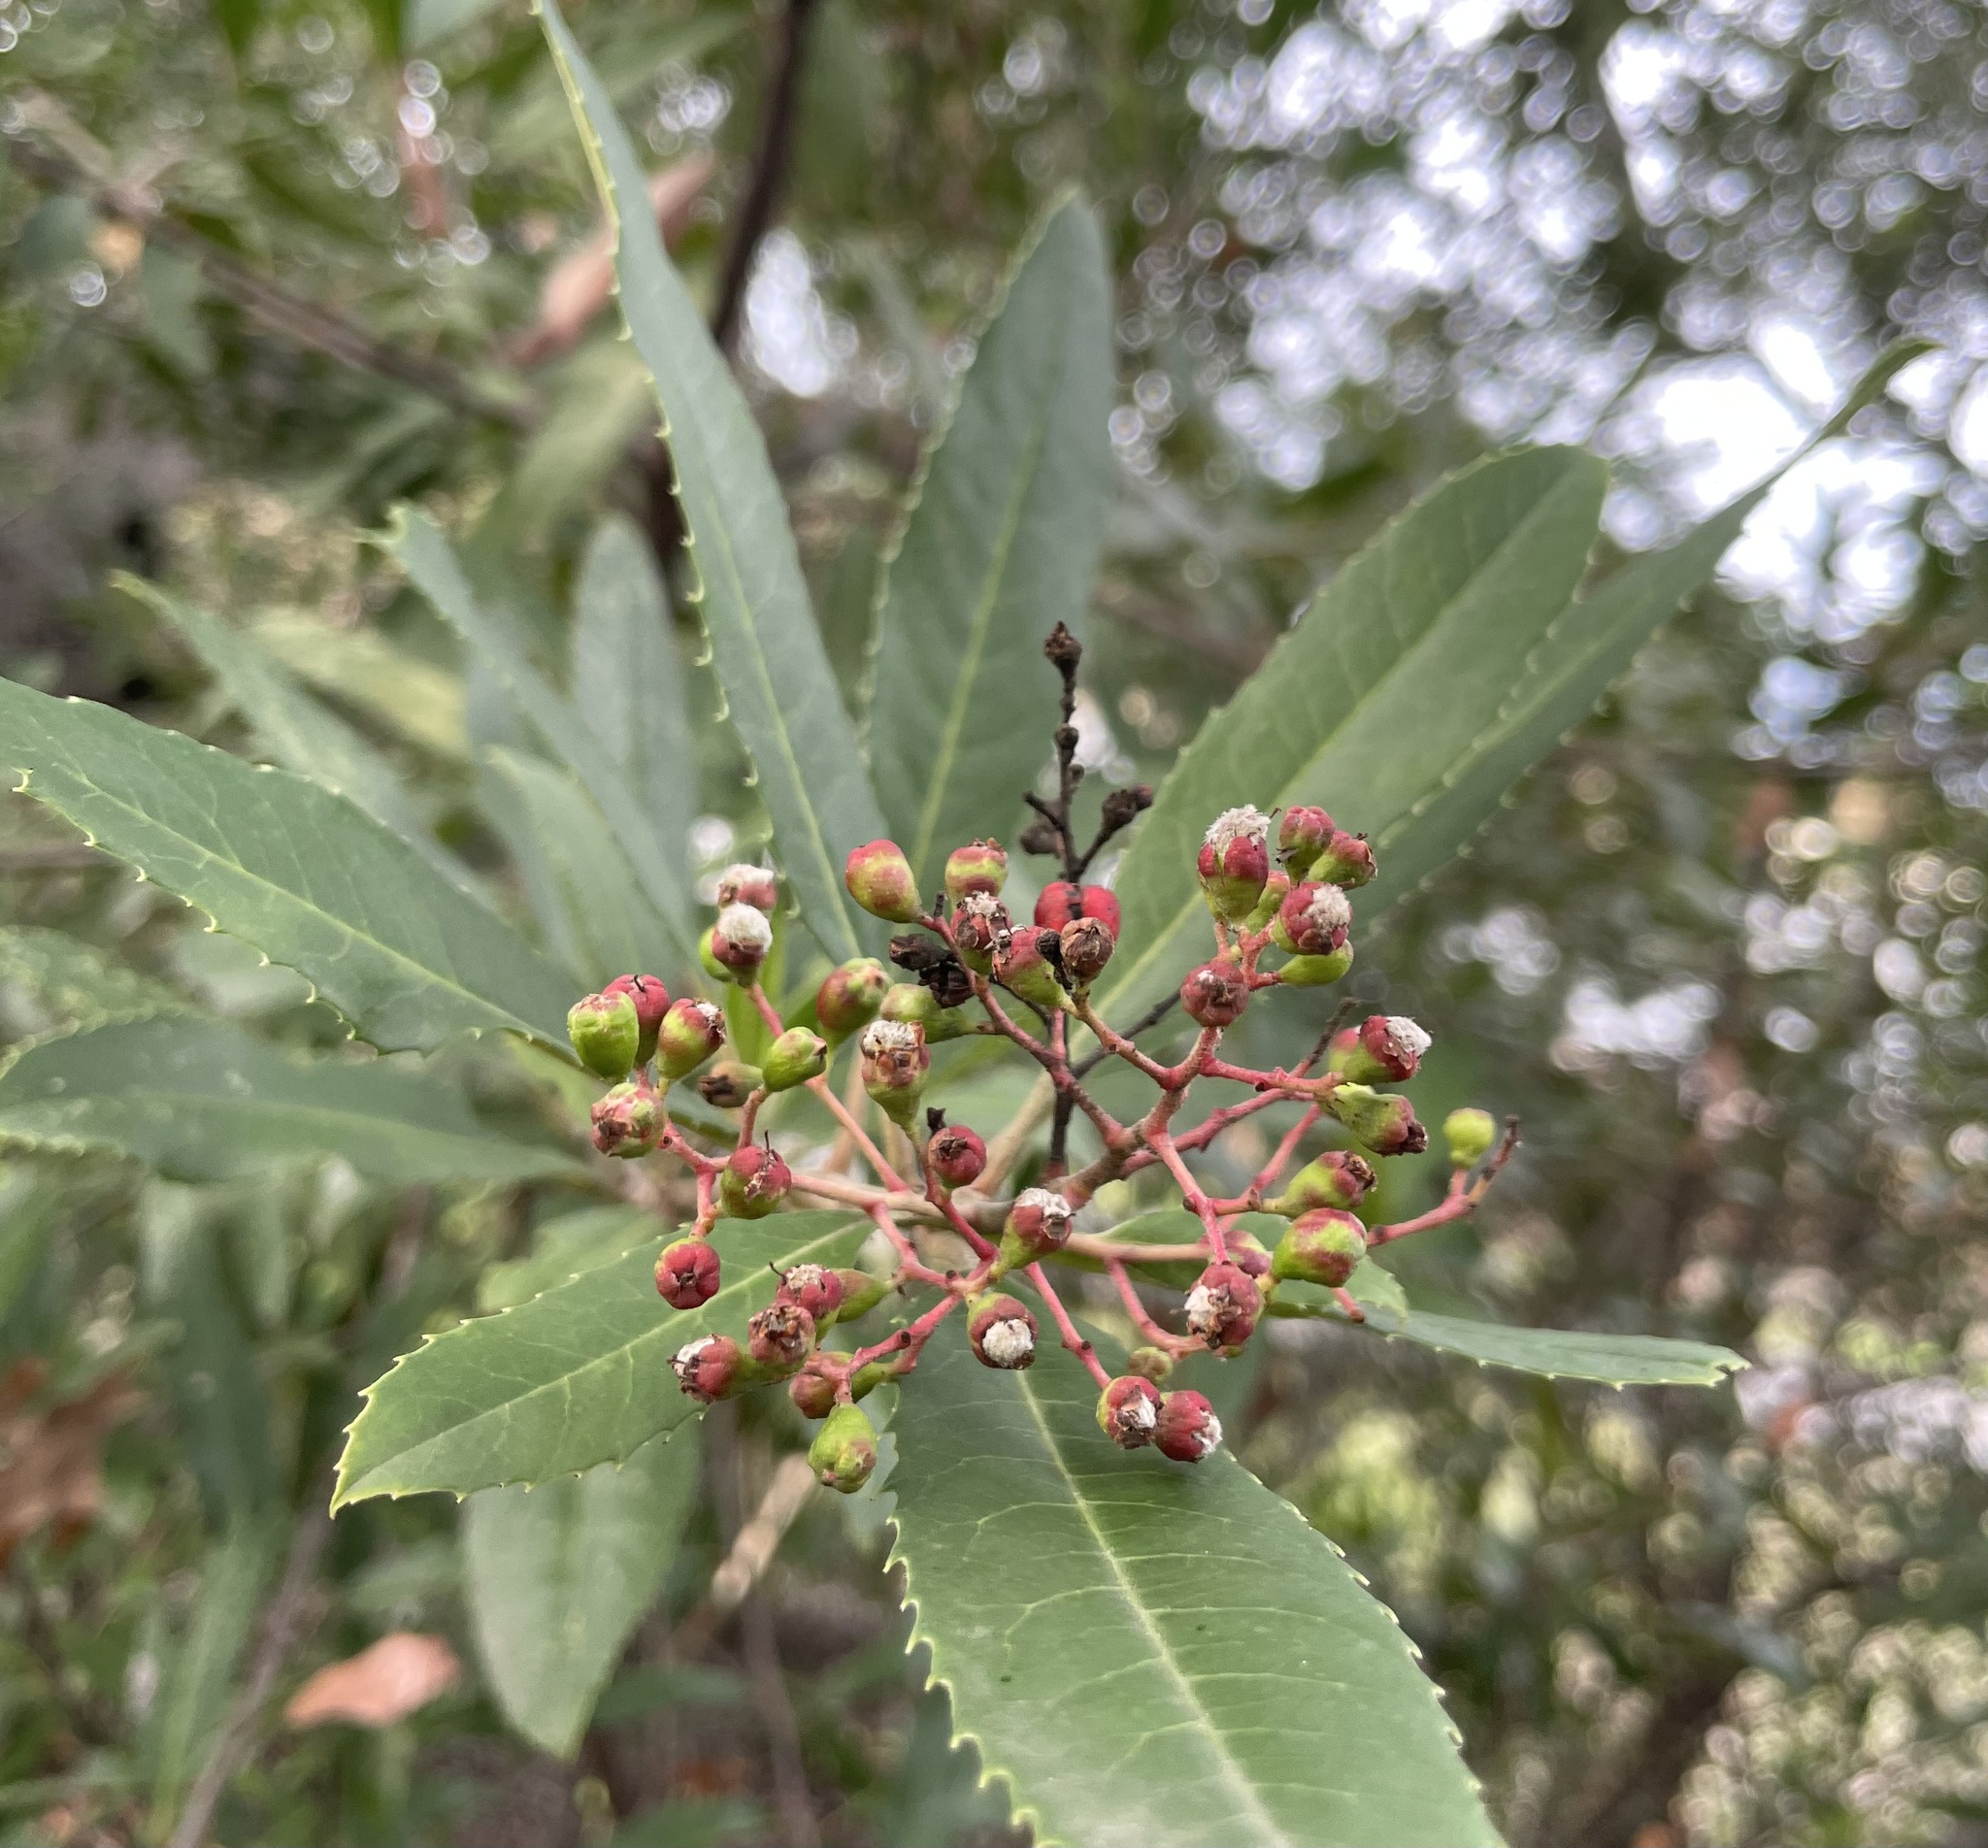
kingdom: Animalia
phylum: Arthropoda
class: Insecta
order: Diptera
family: Cecidomyiidae
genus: Asphondylia
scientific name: Asphondylia photiniae
